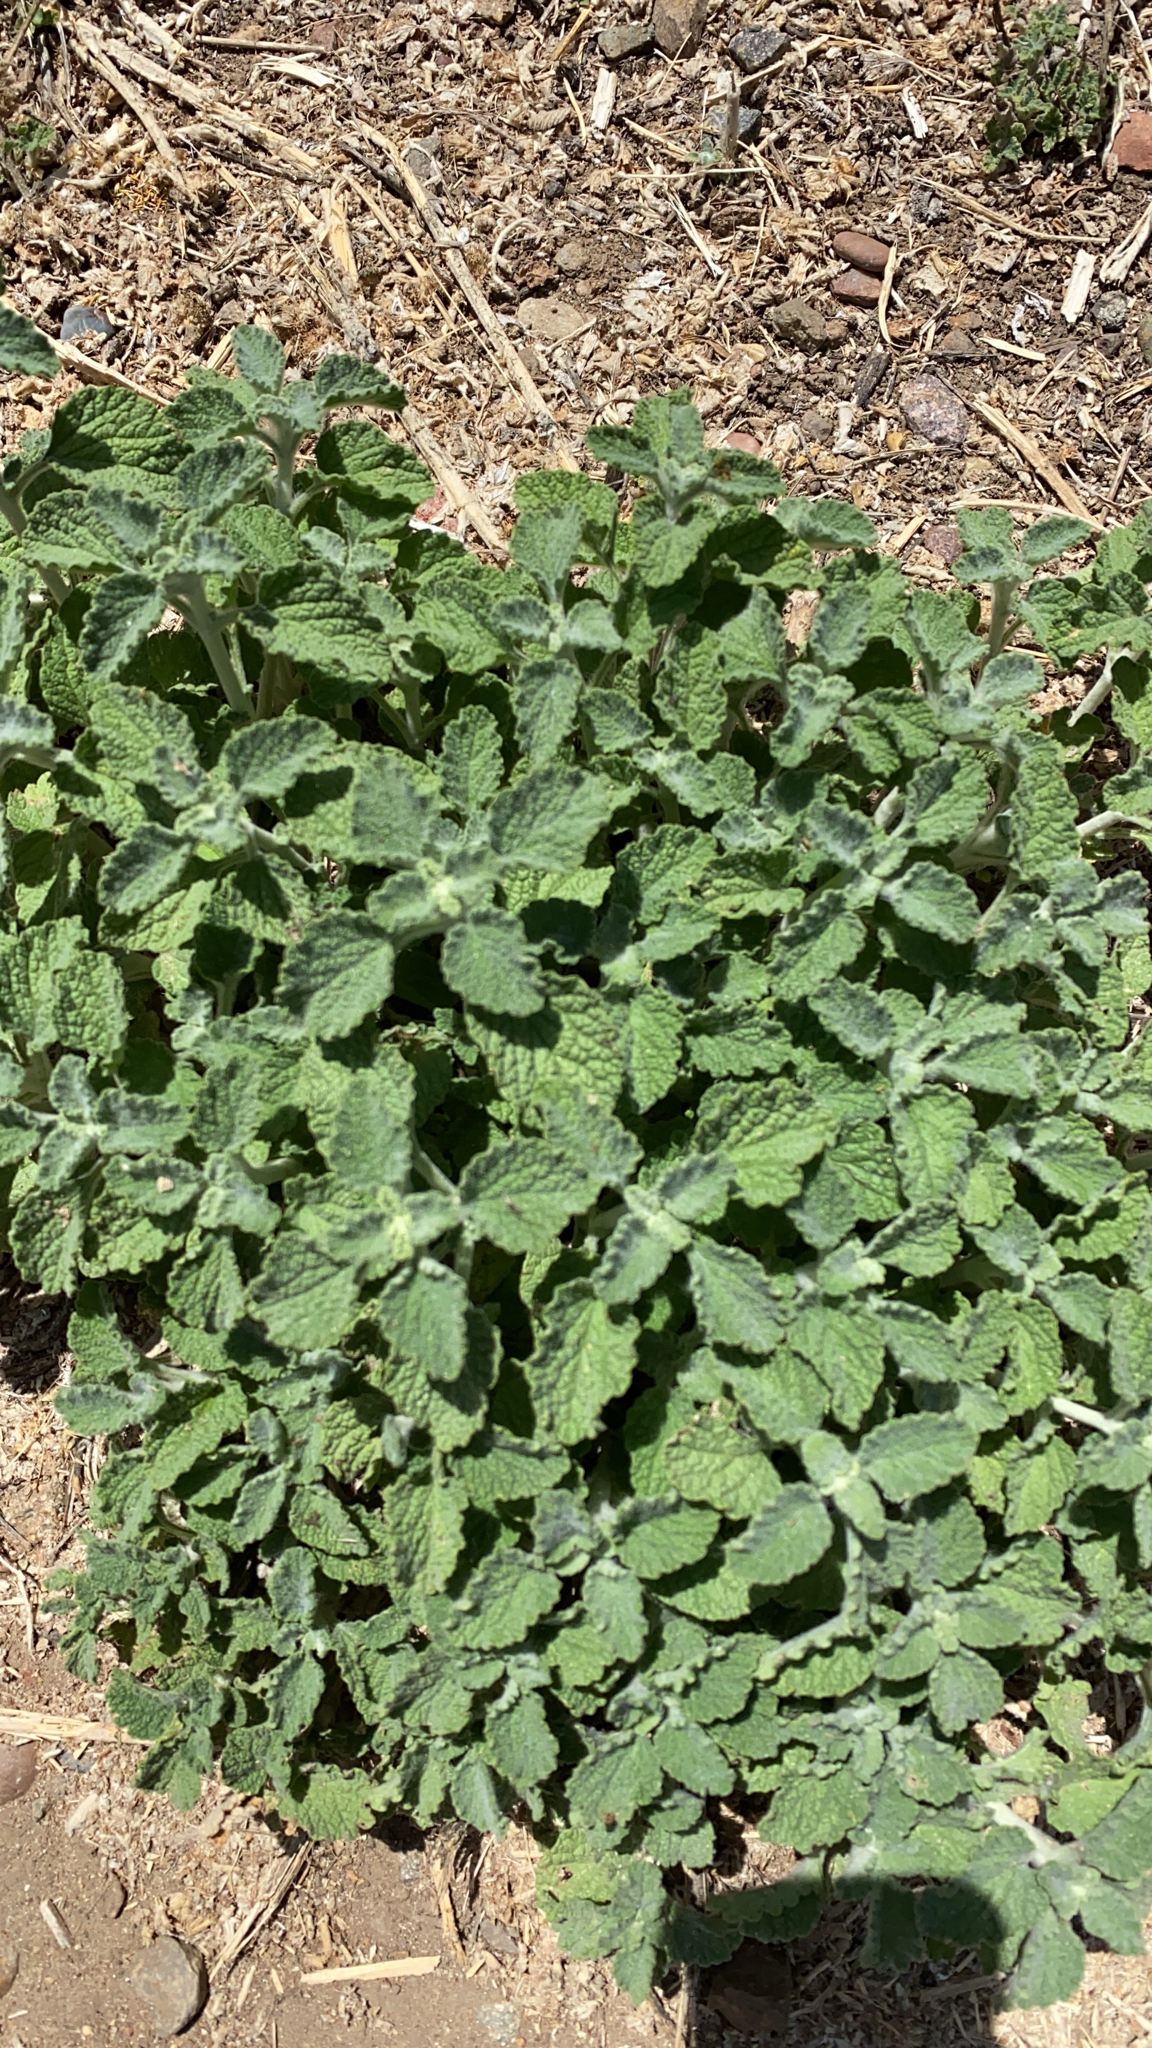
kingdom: Plantae
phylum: Tracheophyta
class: Magnoliopsida
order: Lamiales
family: Lamiaceae
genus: Marrubium
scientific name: Marrubium vulgare
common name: Horehound
